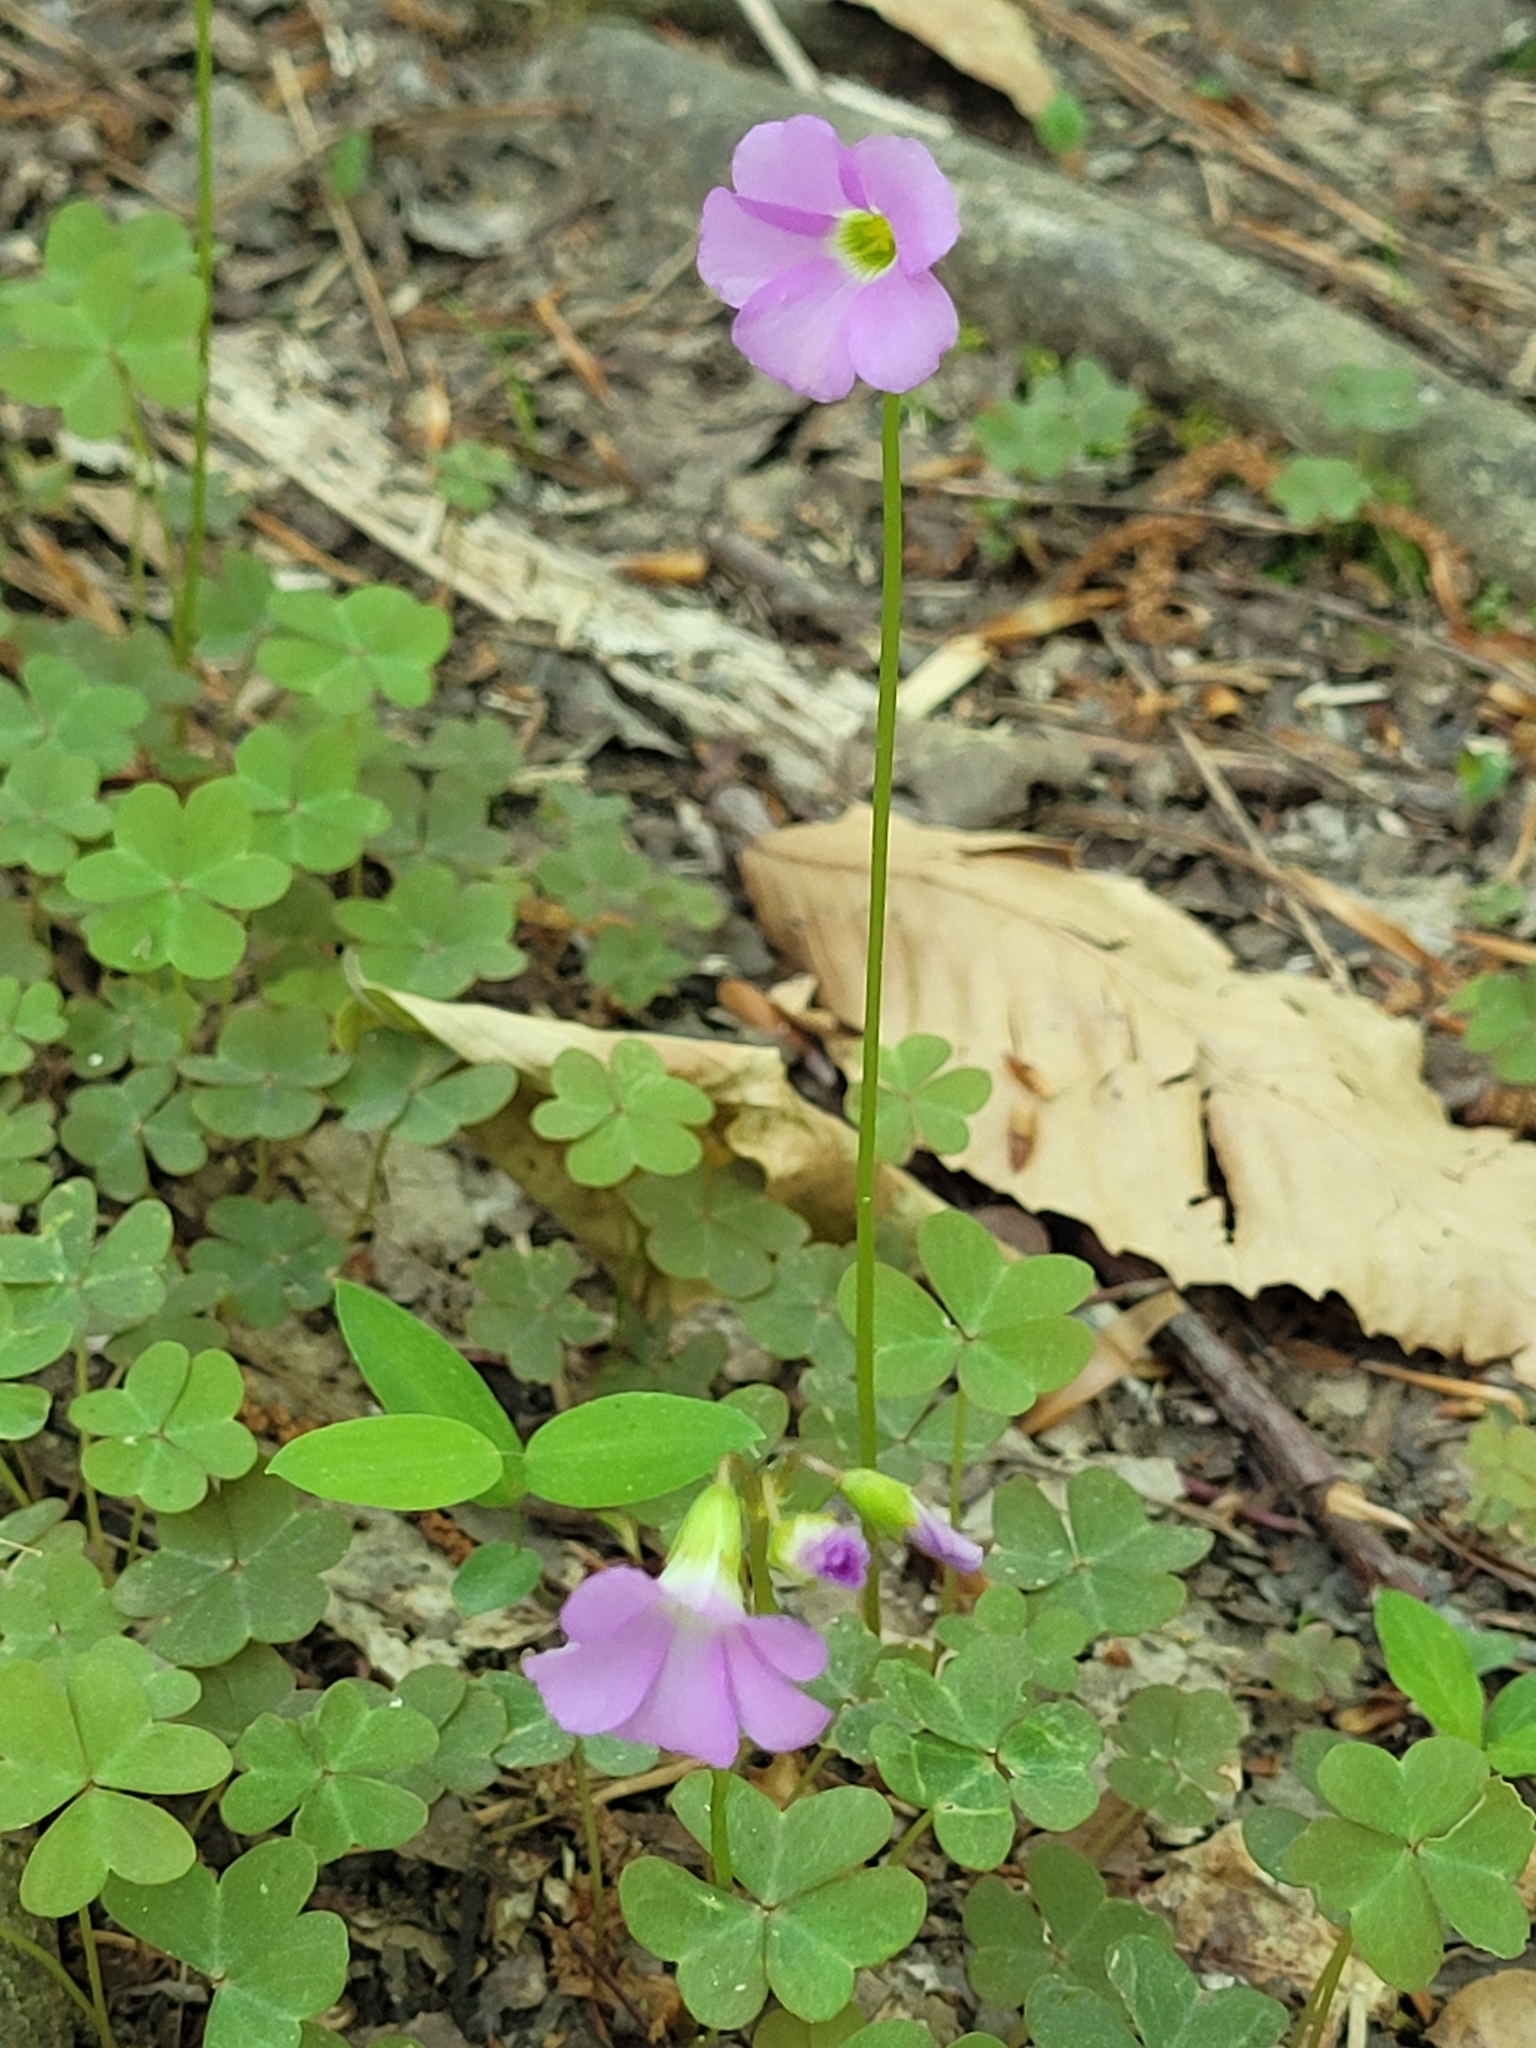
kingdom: Plantae
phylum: Tracheophyta
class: Magnoliopsida
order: Oxalidales
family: Oxalidaceae
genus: Oxalis
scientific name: Oxalis violacea
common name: Violet wood-sorrel
